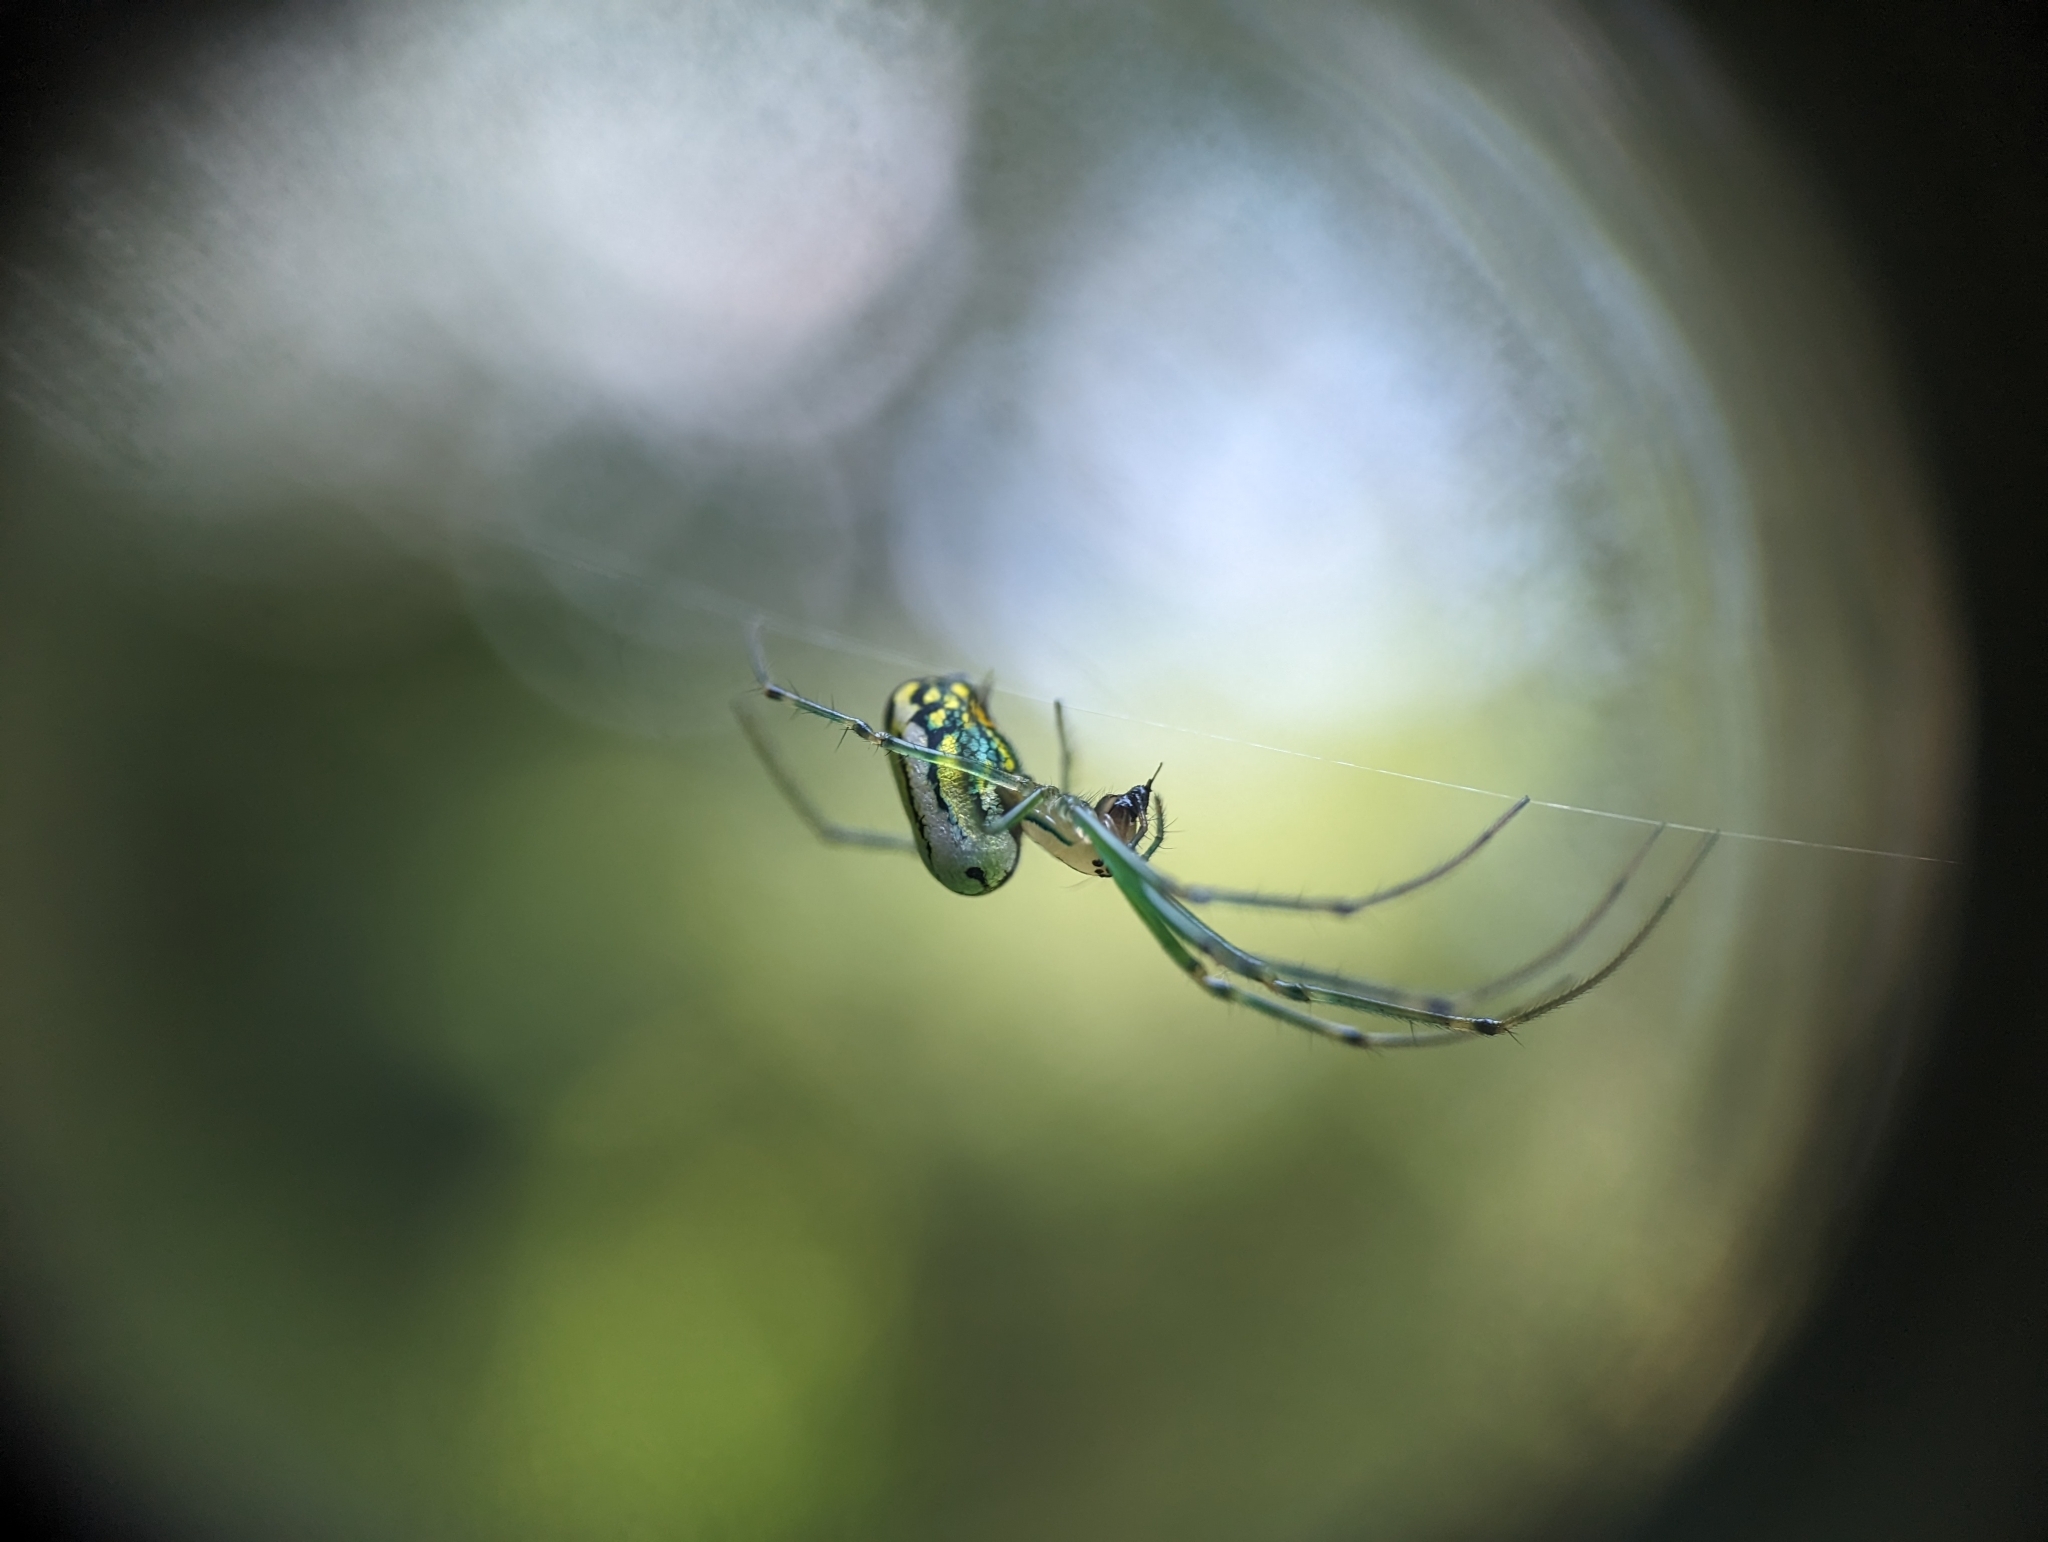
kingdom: Animalia
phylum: Arthropoda
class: Arachnida
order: Araneae
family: Tetragnathidae
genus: Leucauge
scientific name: Leucauge venusta
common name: Longjawed orb weavers
